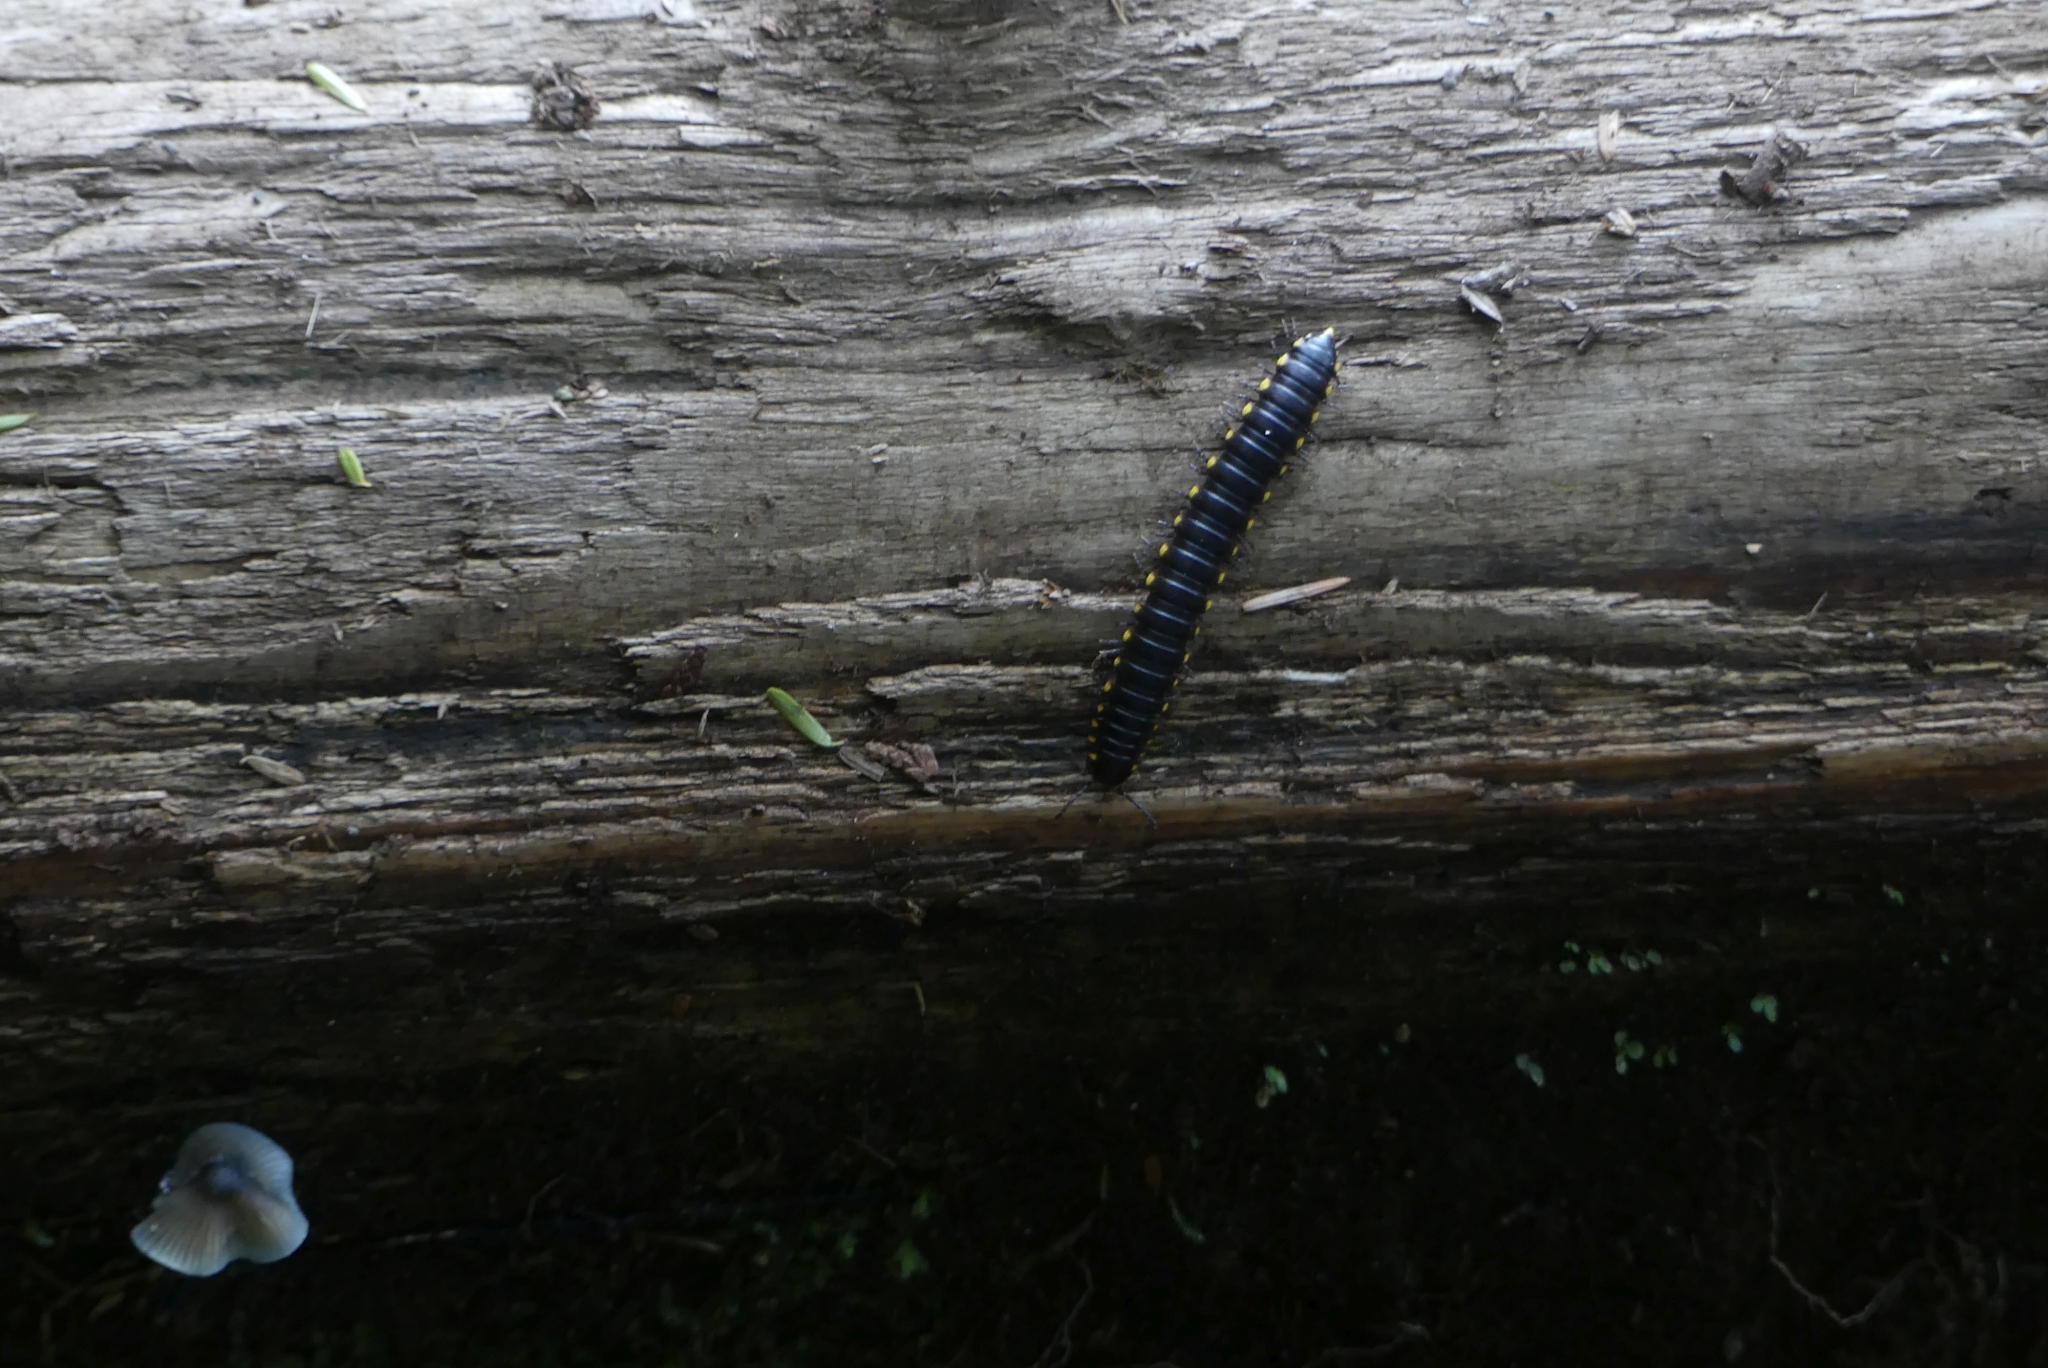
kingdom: Animalia
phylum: Arthropoda
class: Diplopoda
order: Polydesmida
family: Xystodesmidae
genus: Harpaphe
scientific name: Harpaphe haydeniana
